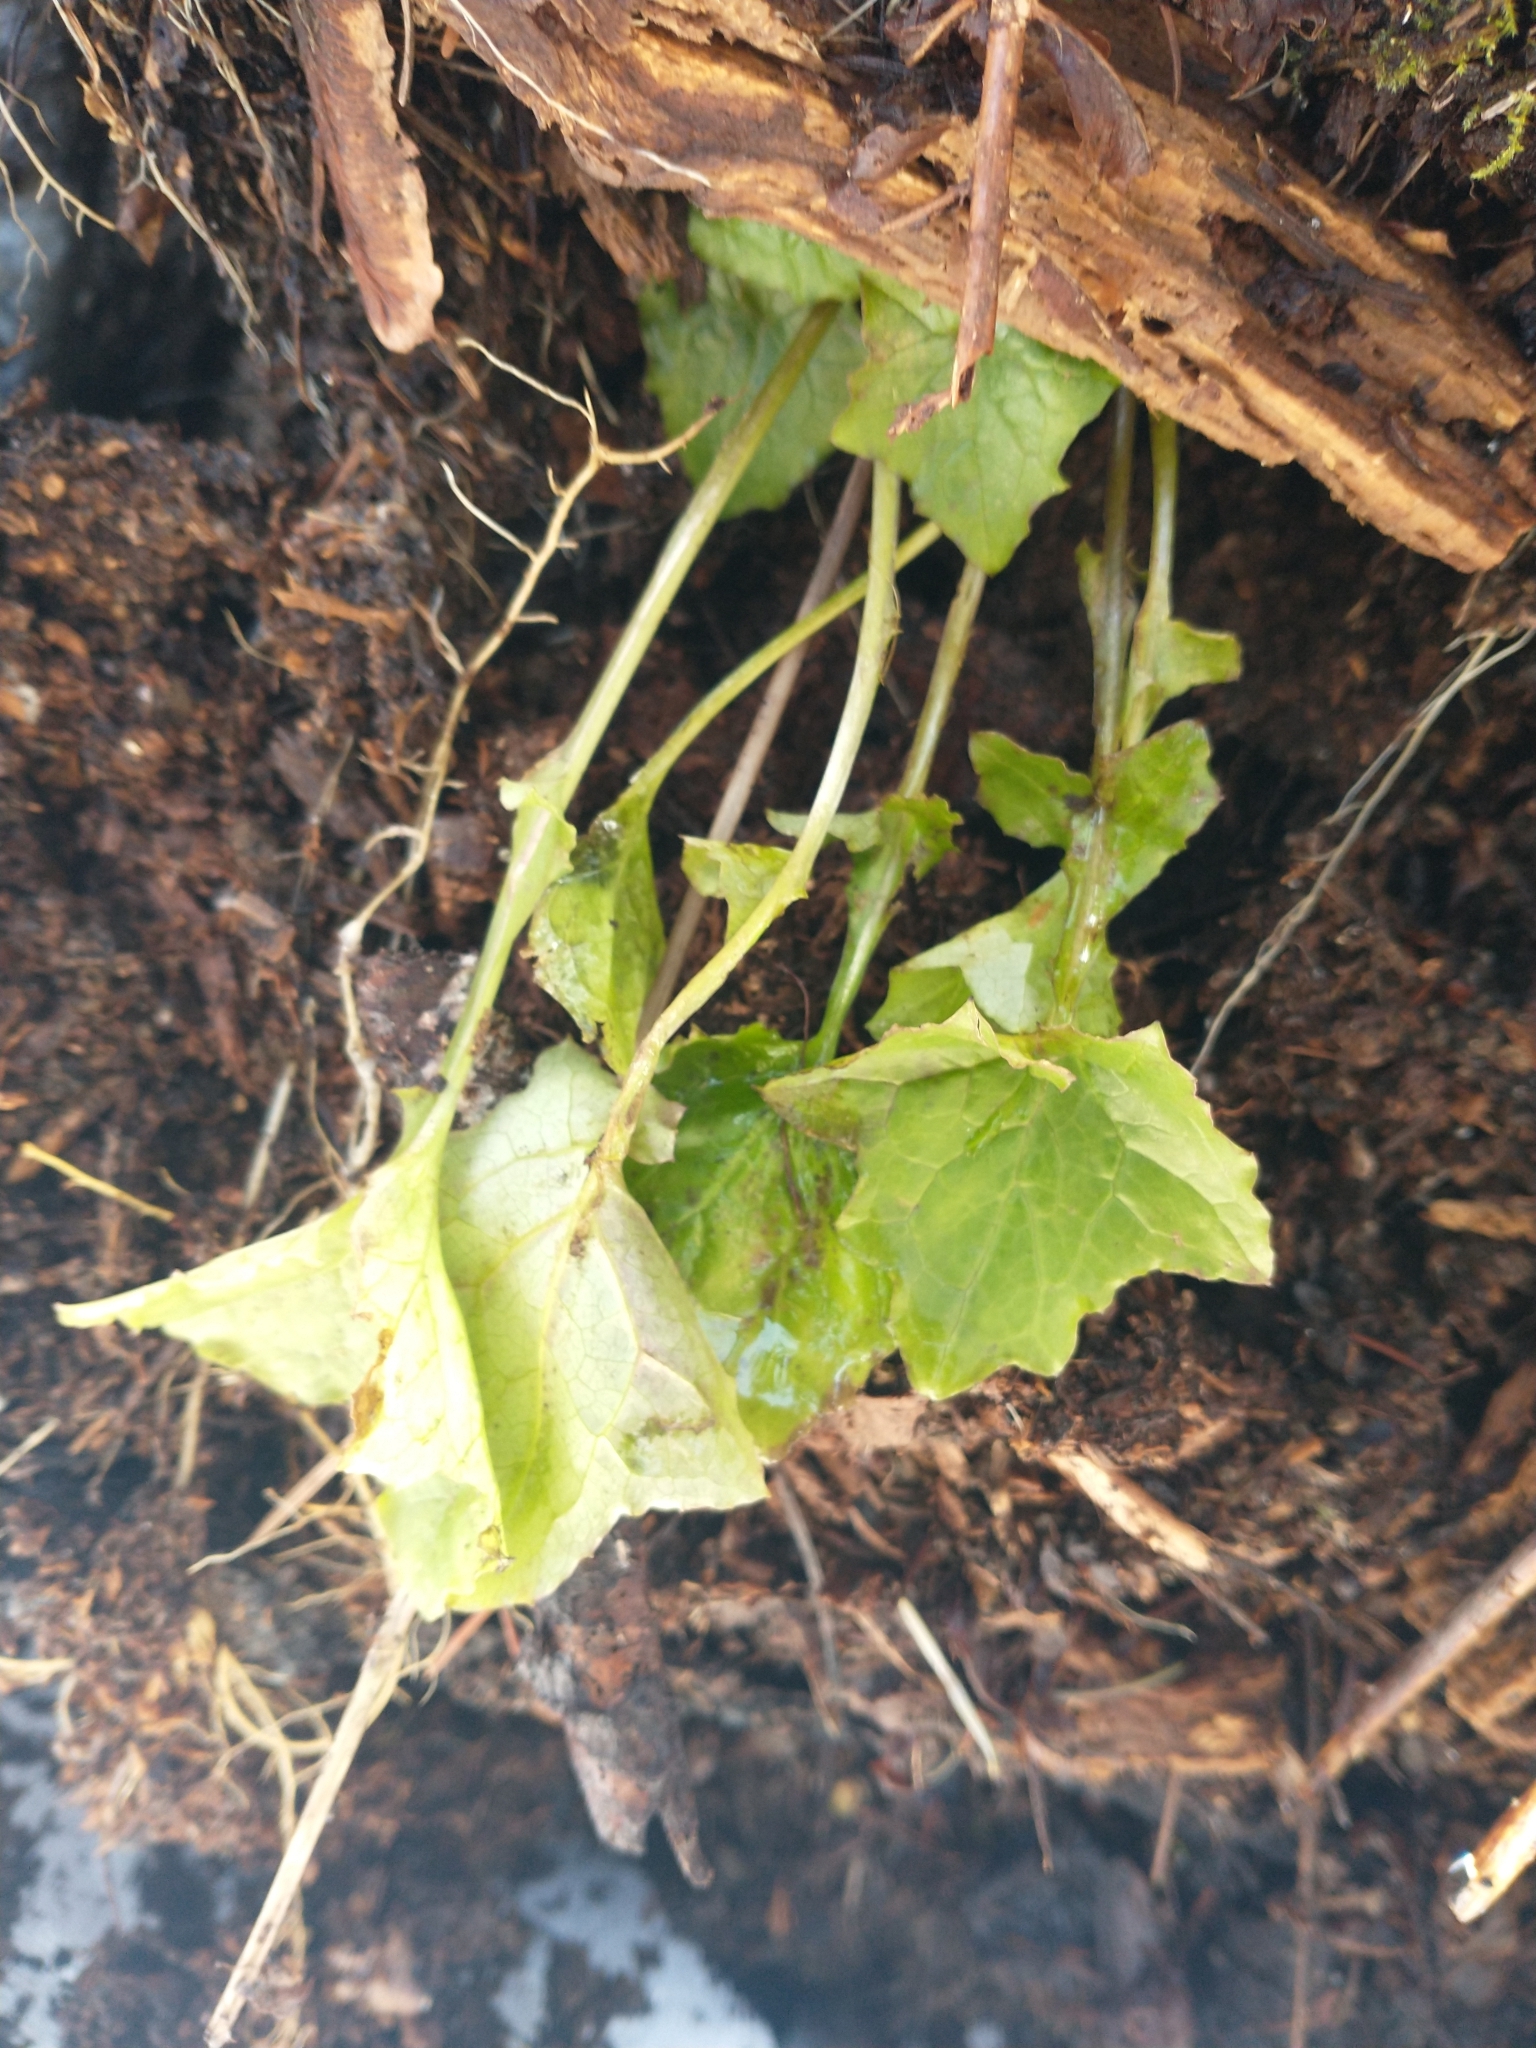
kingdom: Plantae
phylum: Tracheophyta
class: Magnoliopsida
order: Asterales
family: Asteraceae
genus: Mycelis
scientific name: Mycelis muralis
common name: Wall lettuce
